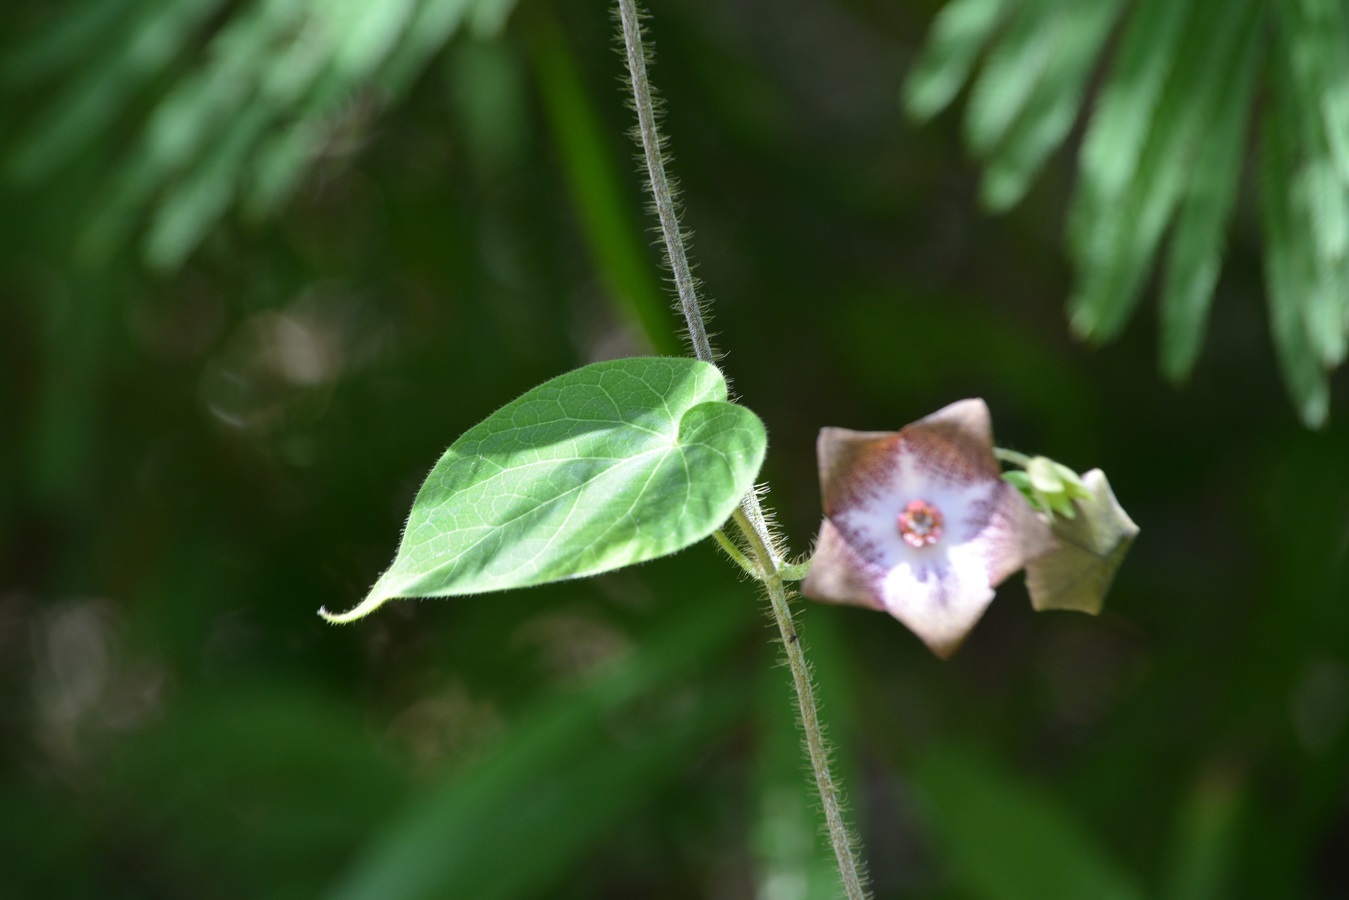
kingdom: Plantae
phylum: Tracheophyta
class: Magnoliopsida
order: Gentianales
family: Apocynaceae
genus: Polystemma
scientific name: Polystemma guatemalense
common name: Arborescente rattan
